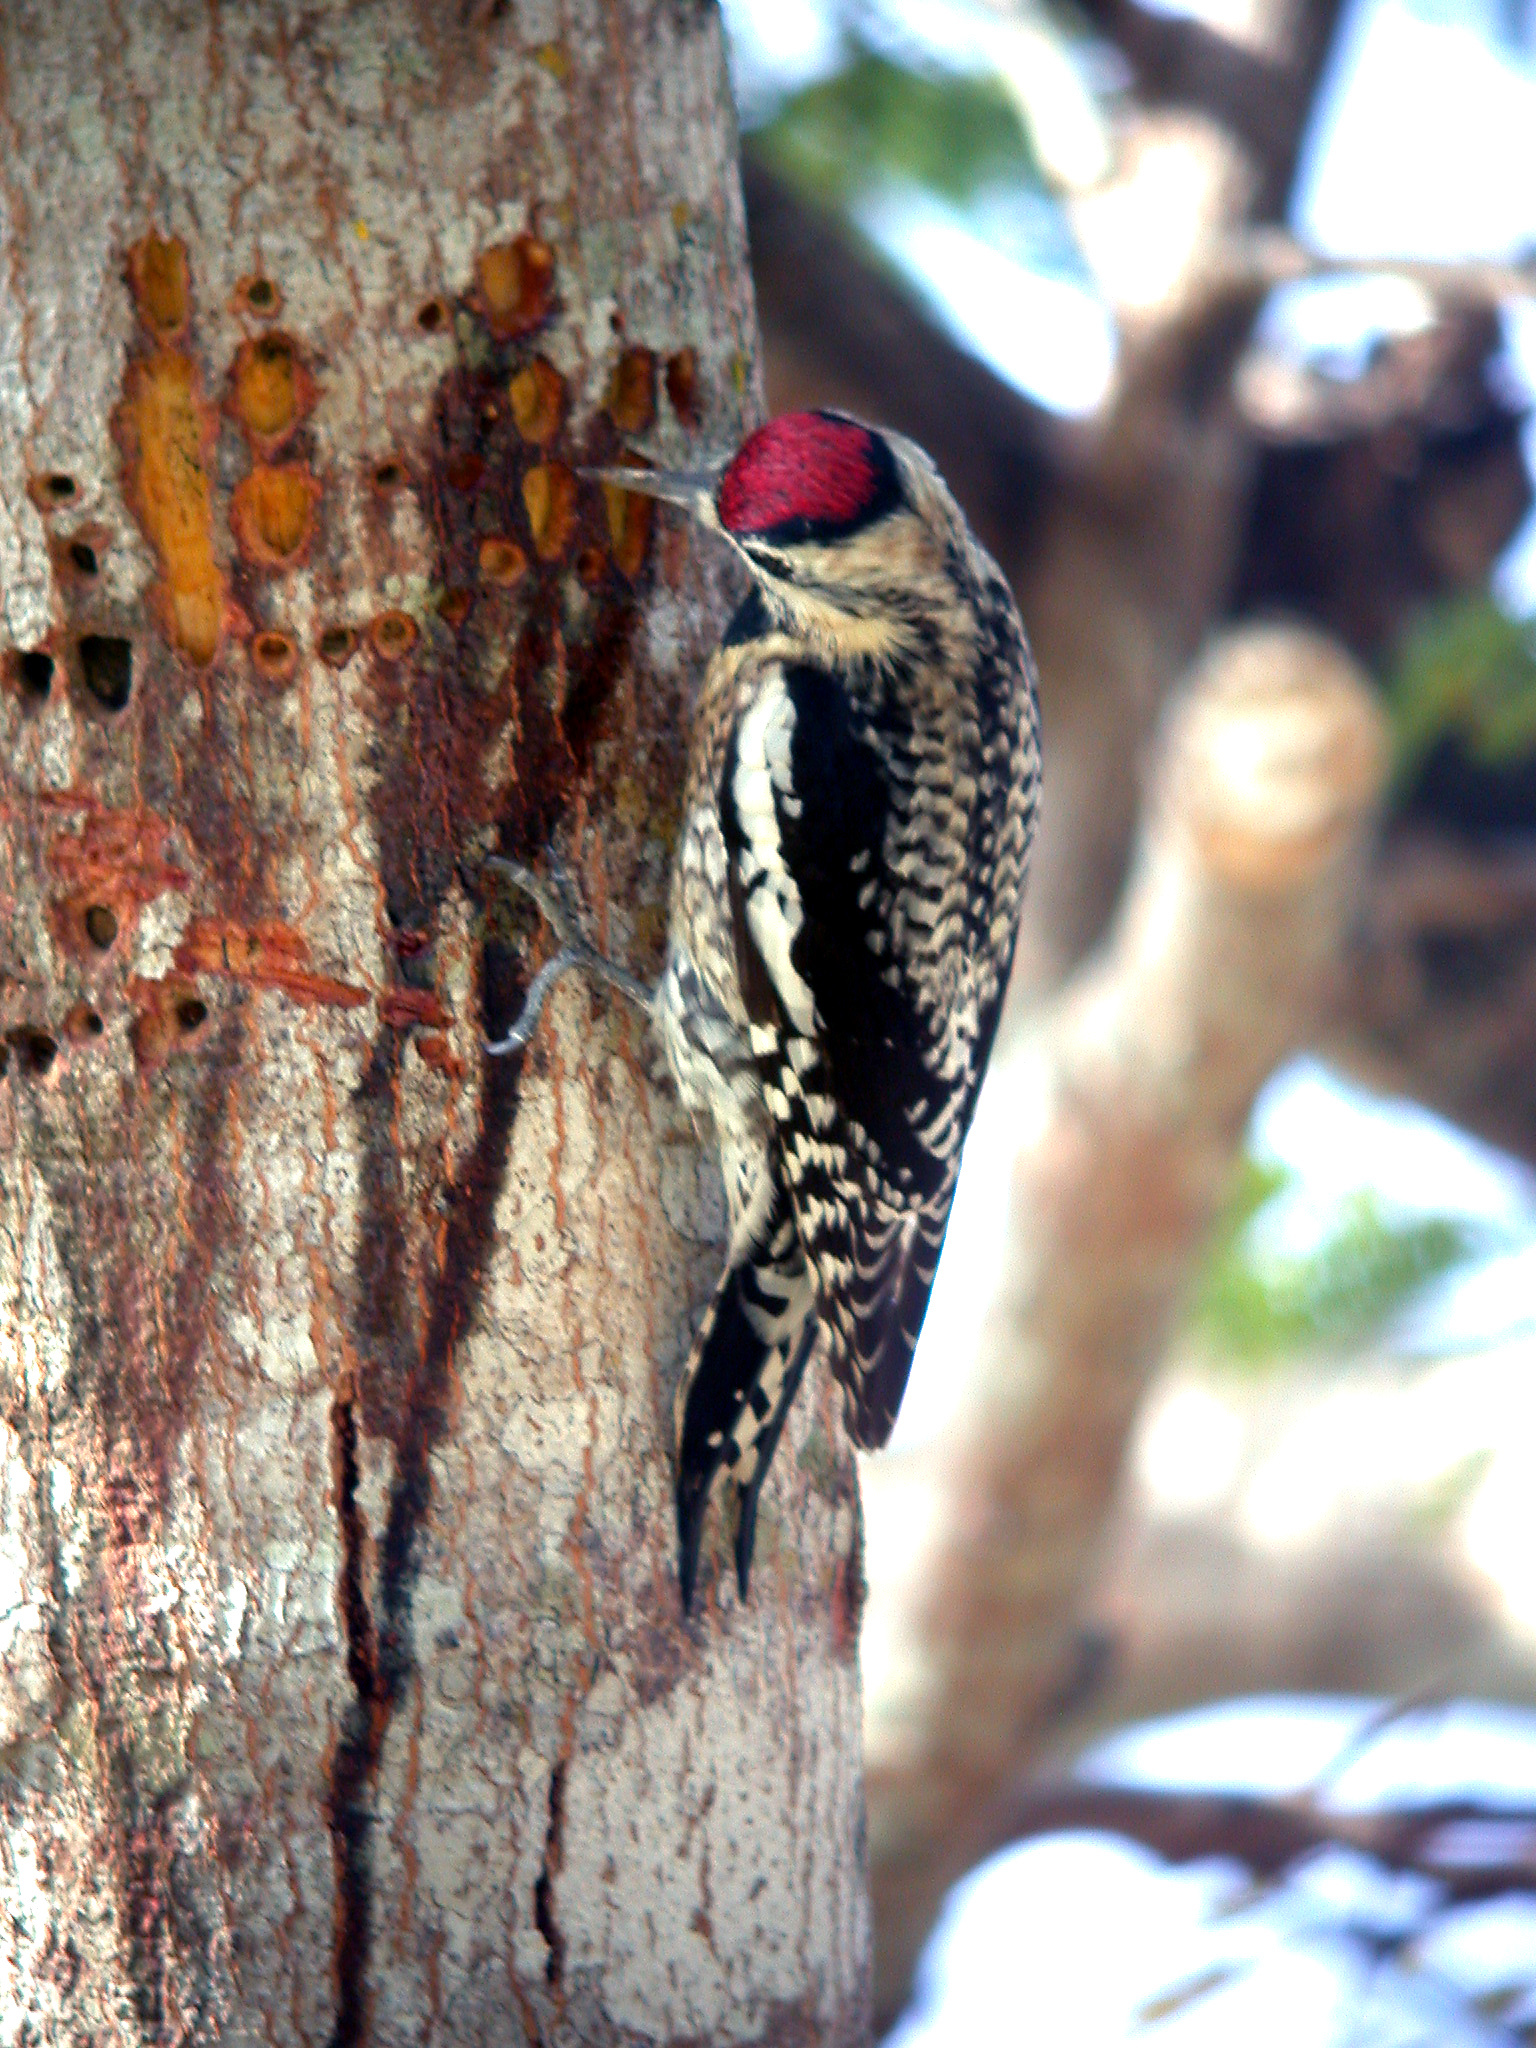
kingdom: Animalia
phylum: Chordata
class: Aves
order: Piciformes
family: Picidae
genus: Sphyrapicus
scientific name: Sphyrapicus varius
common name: Yellow-bellied sapsucker
